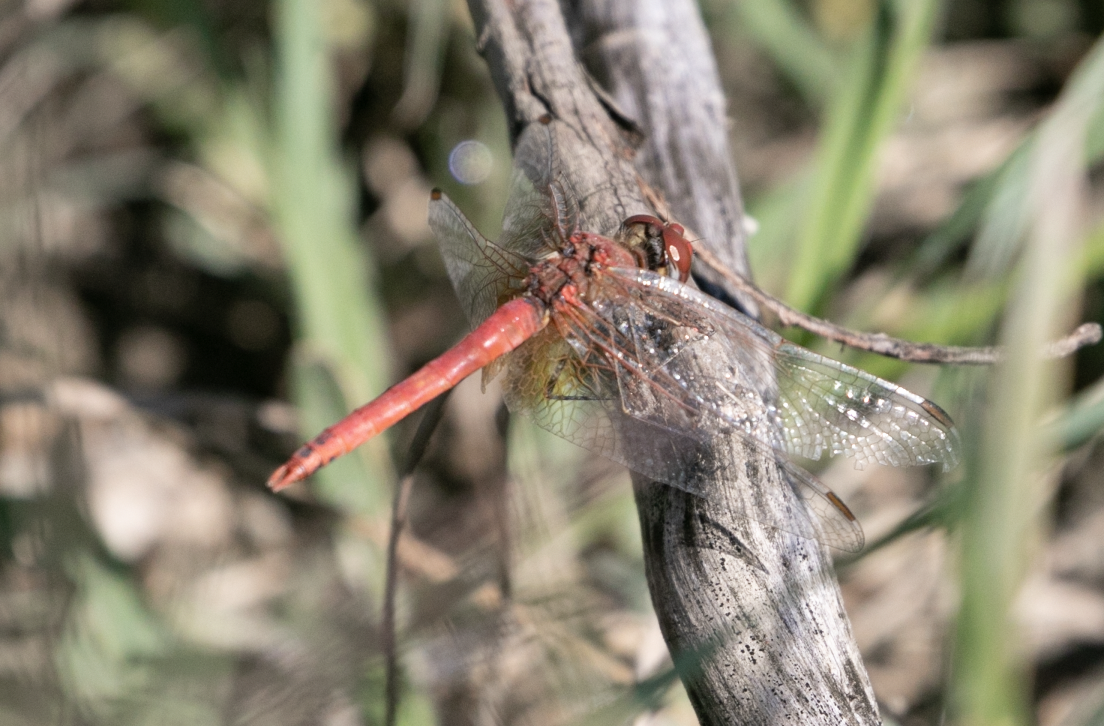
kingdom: Animalia
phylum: Arthropoda
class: Insecta
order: Odonata
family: Libellulidae
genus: Sympetrum
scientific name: Sympetrum fonscolombii
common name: Red-veined darter
